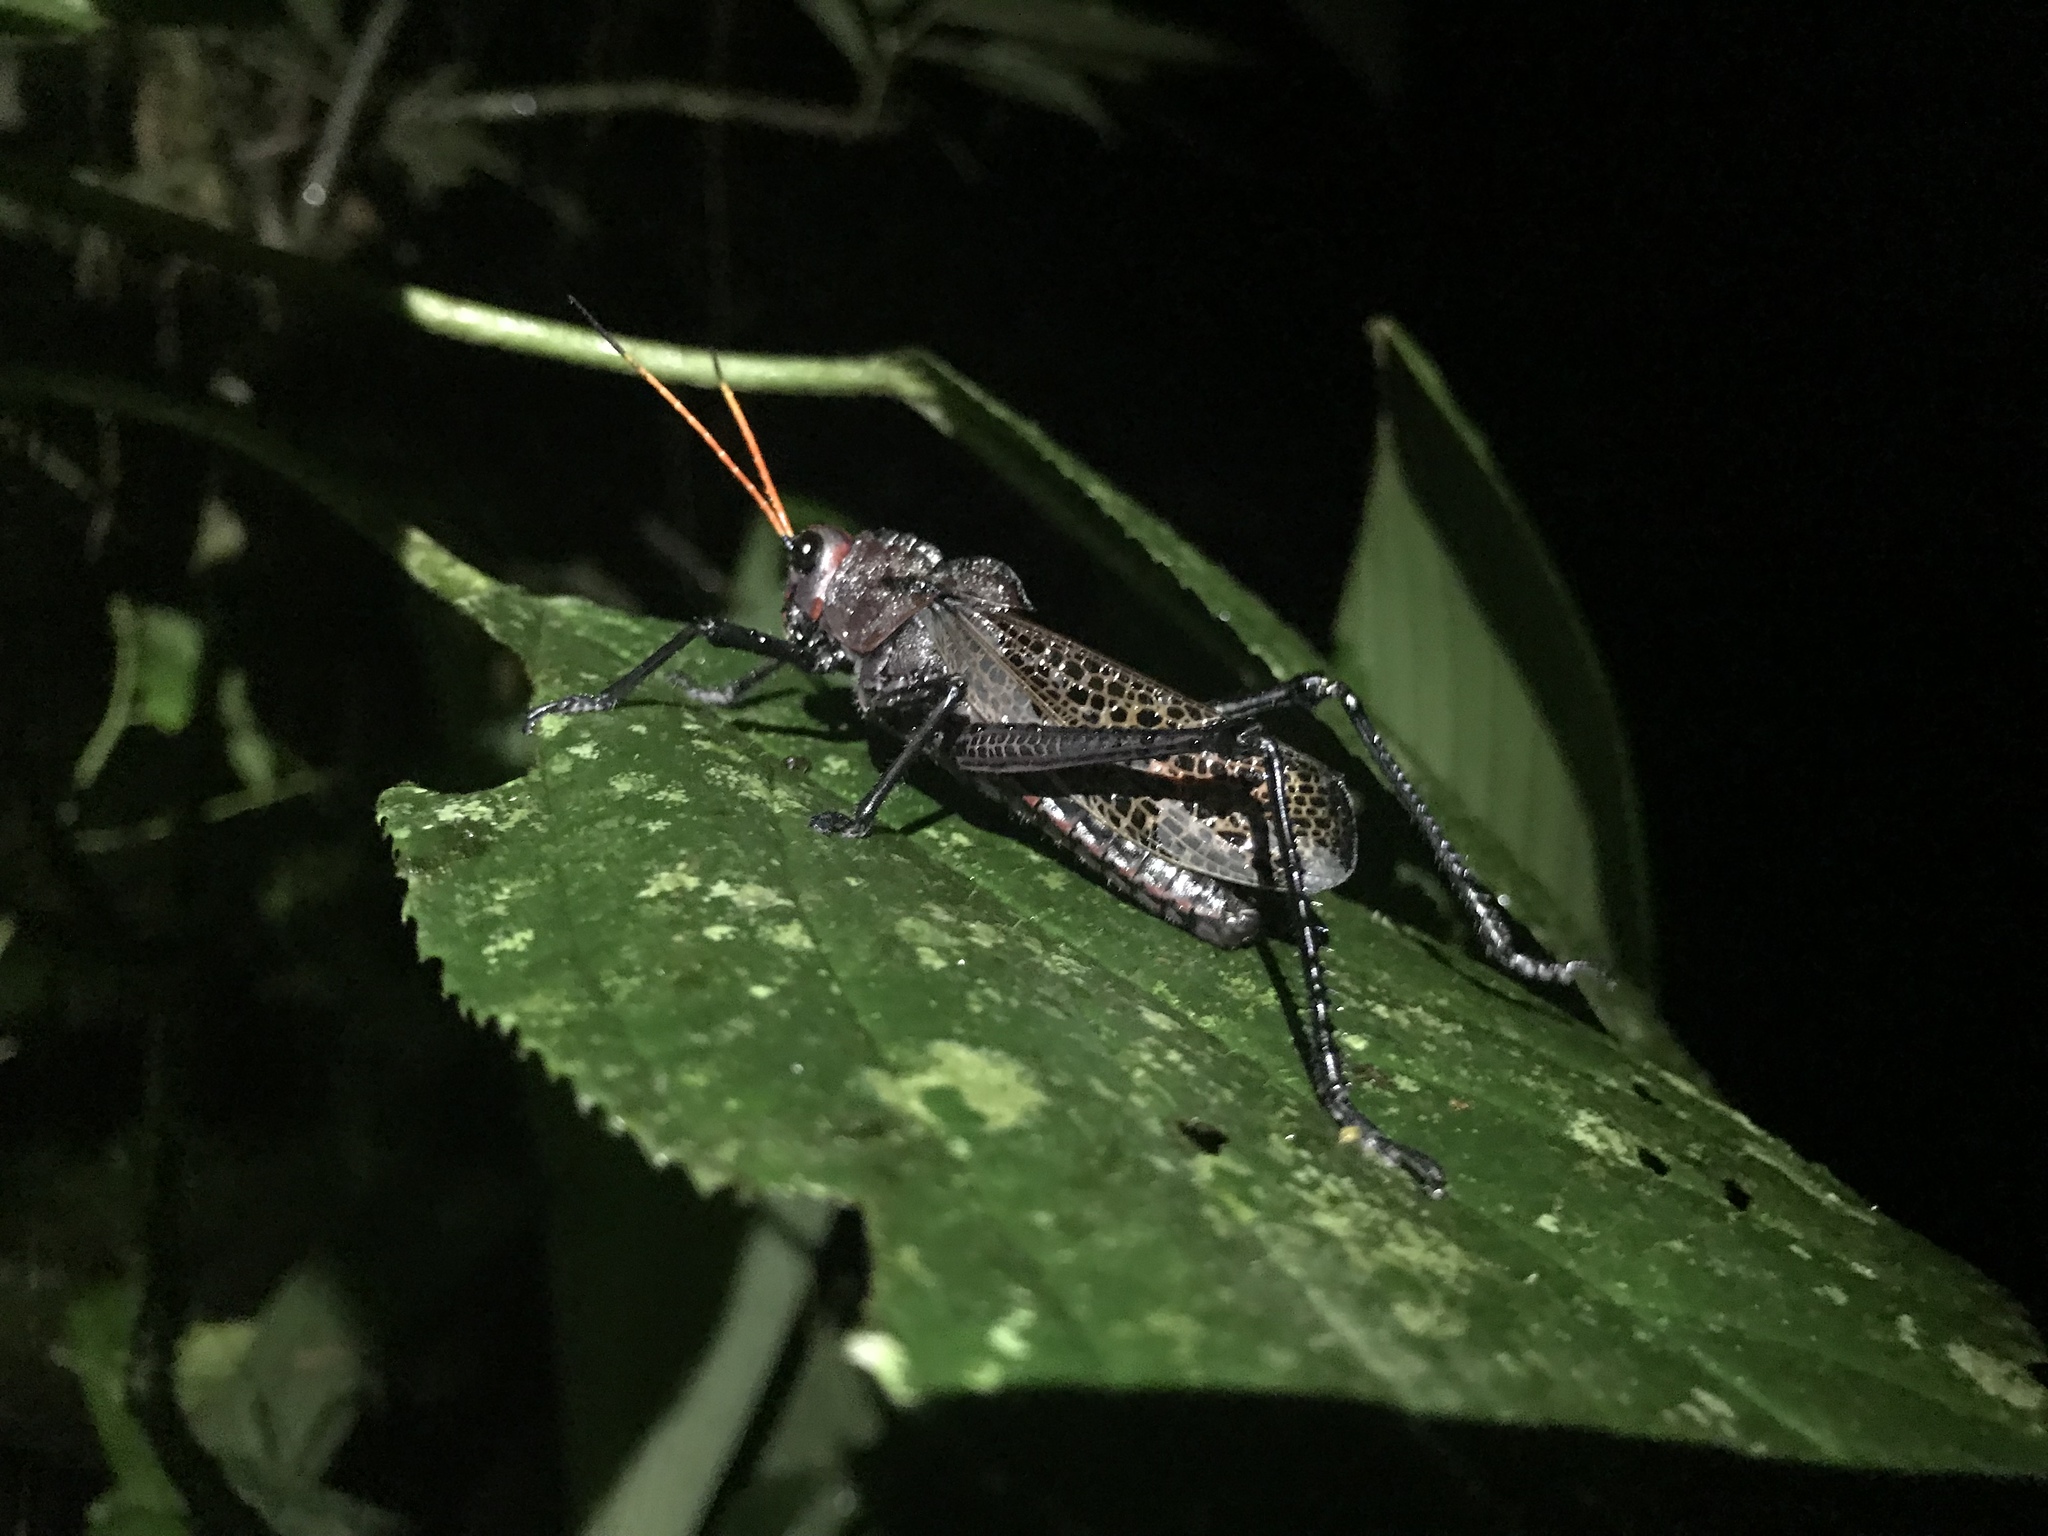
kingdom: Animalia
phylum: Arthropoda
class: Insecta
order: Orthoptera
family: Romaleidae
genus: Romalea
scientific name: Romalea
